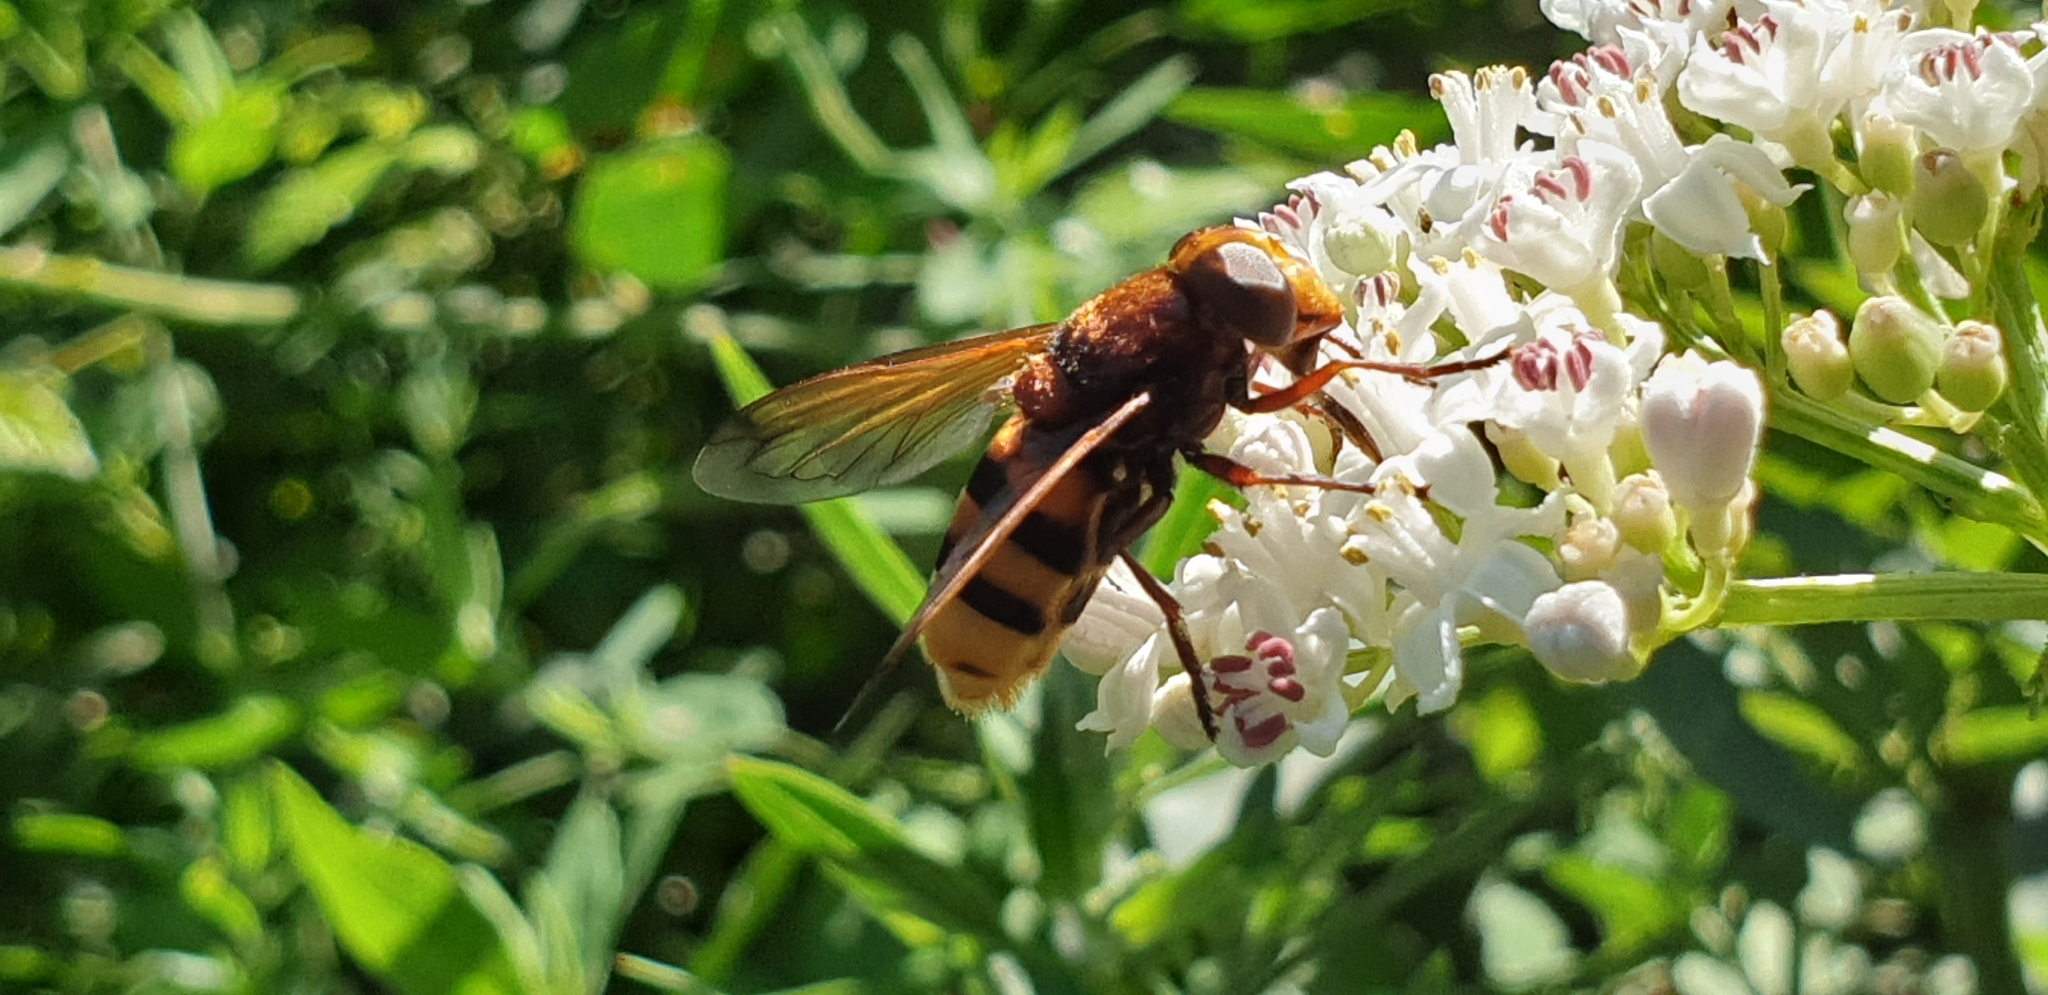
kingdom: Animalia
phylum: Arthropoda
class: Insecta
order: Diptera
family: Syrphidae
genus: Volucella
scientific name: Volucella zonaria
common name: Hornet hoverfly
